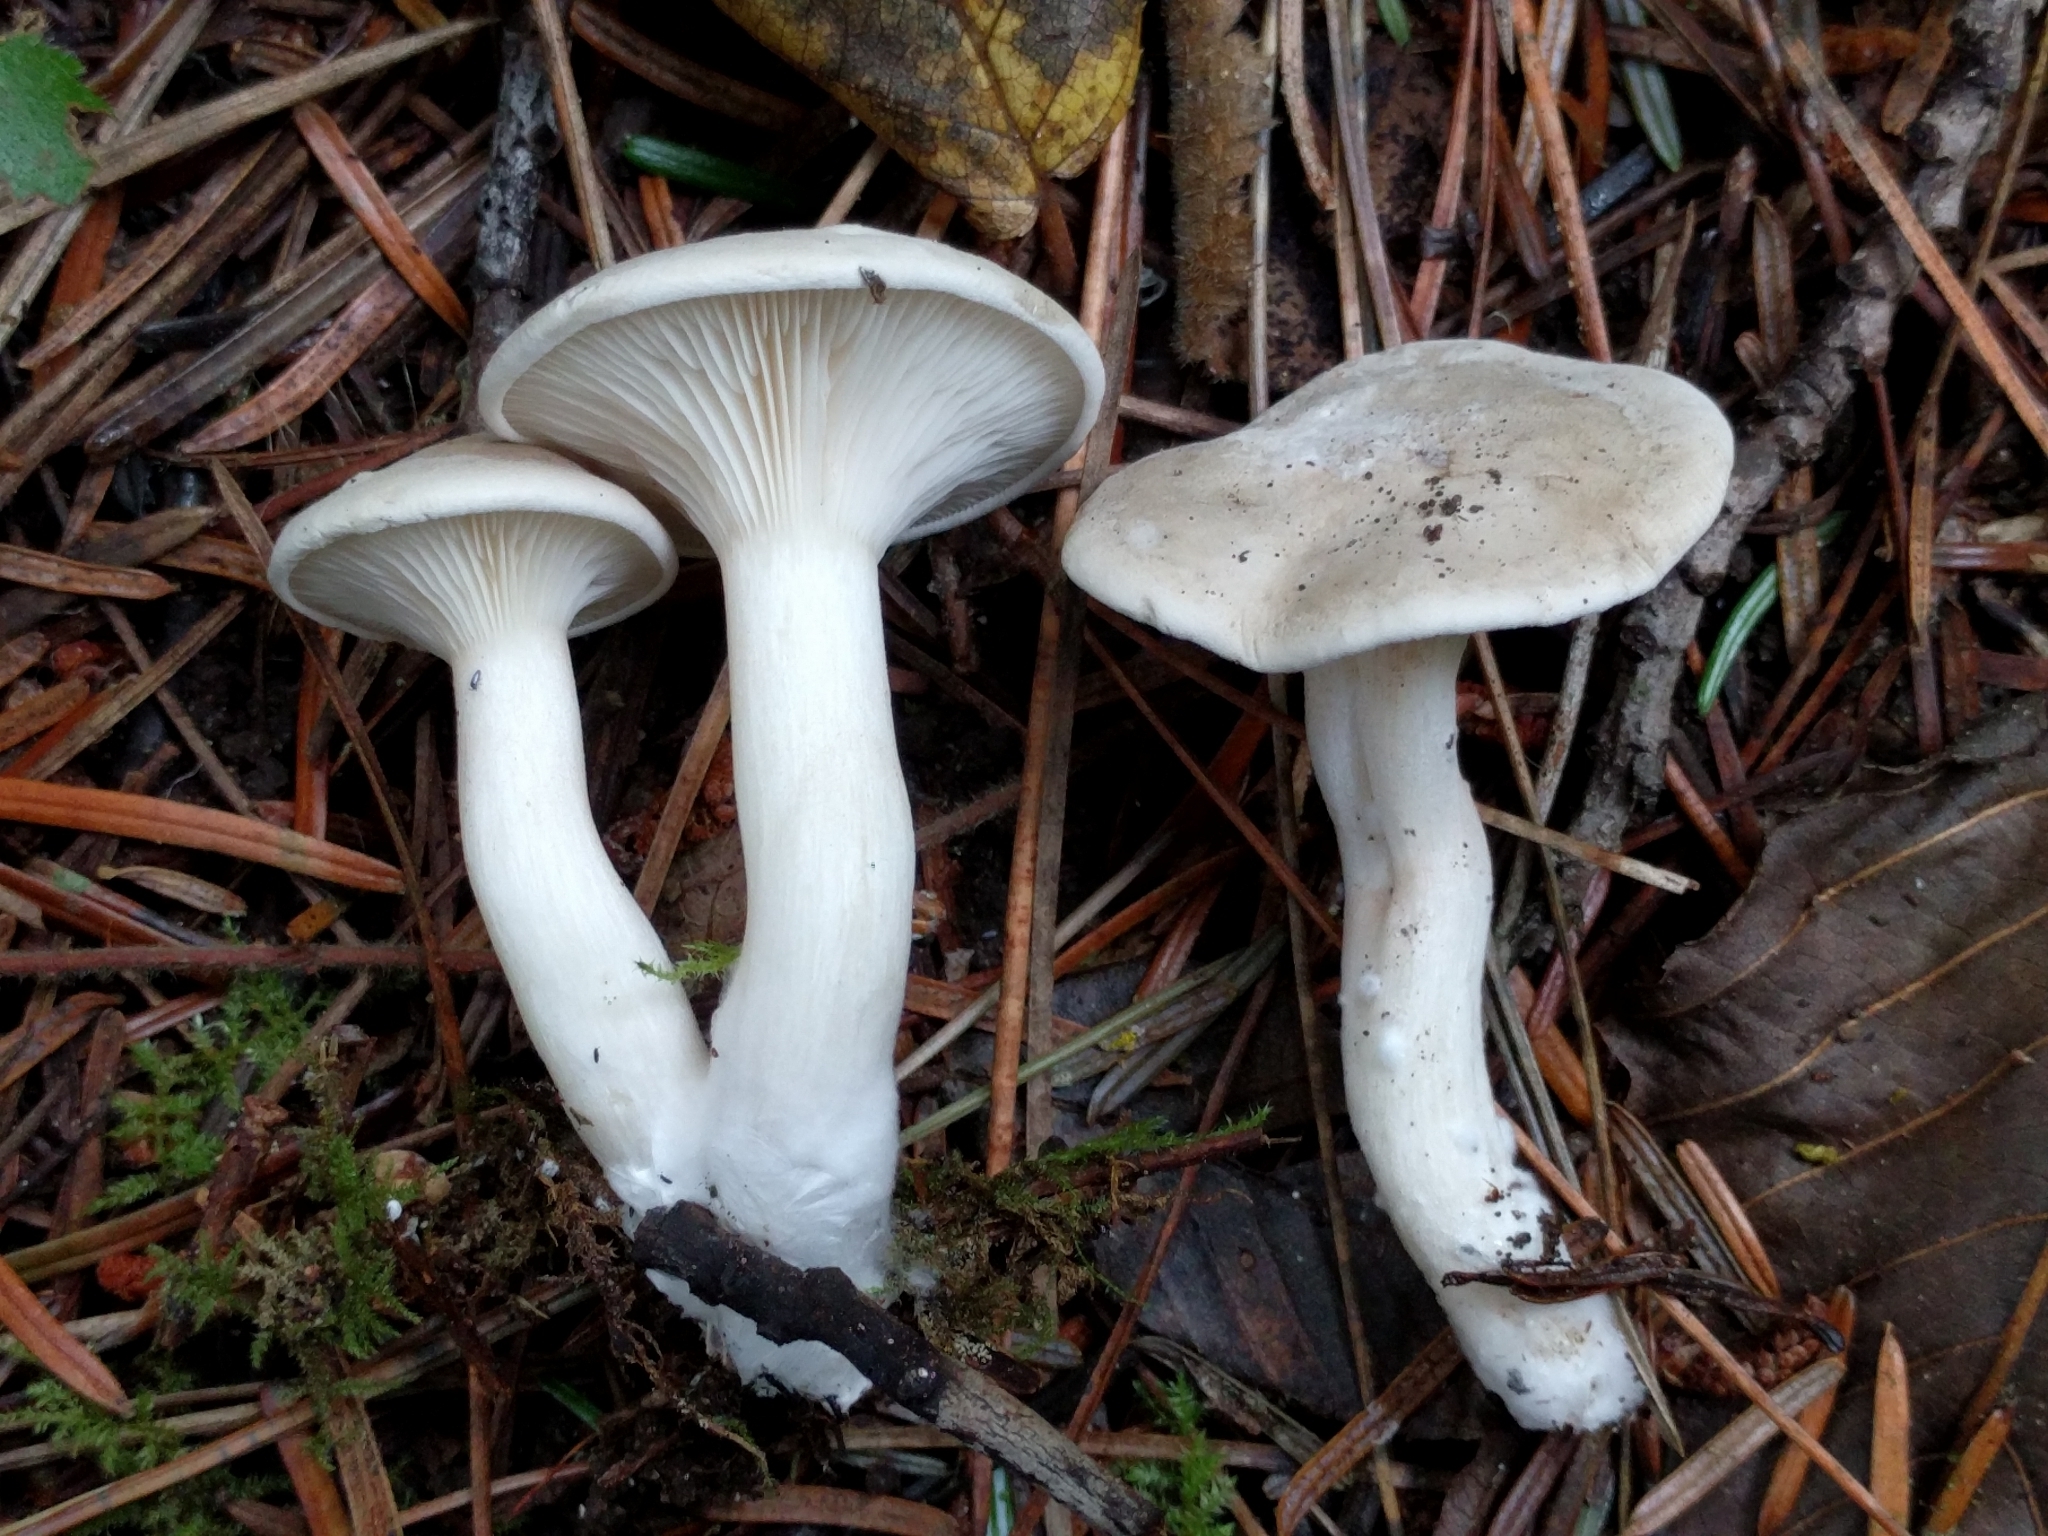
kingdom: Fungi
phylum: Basidiomycota
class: Agaricomycetes
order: Agaricales
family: Entolomataceae
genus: Clitopilus
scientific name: Clitopilus prunulus
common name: The miller
